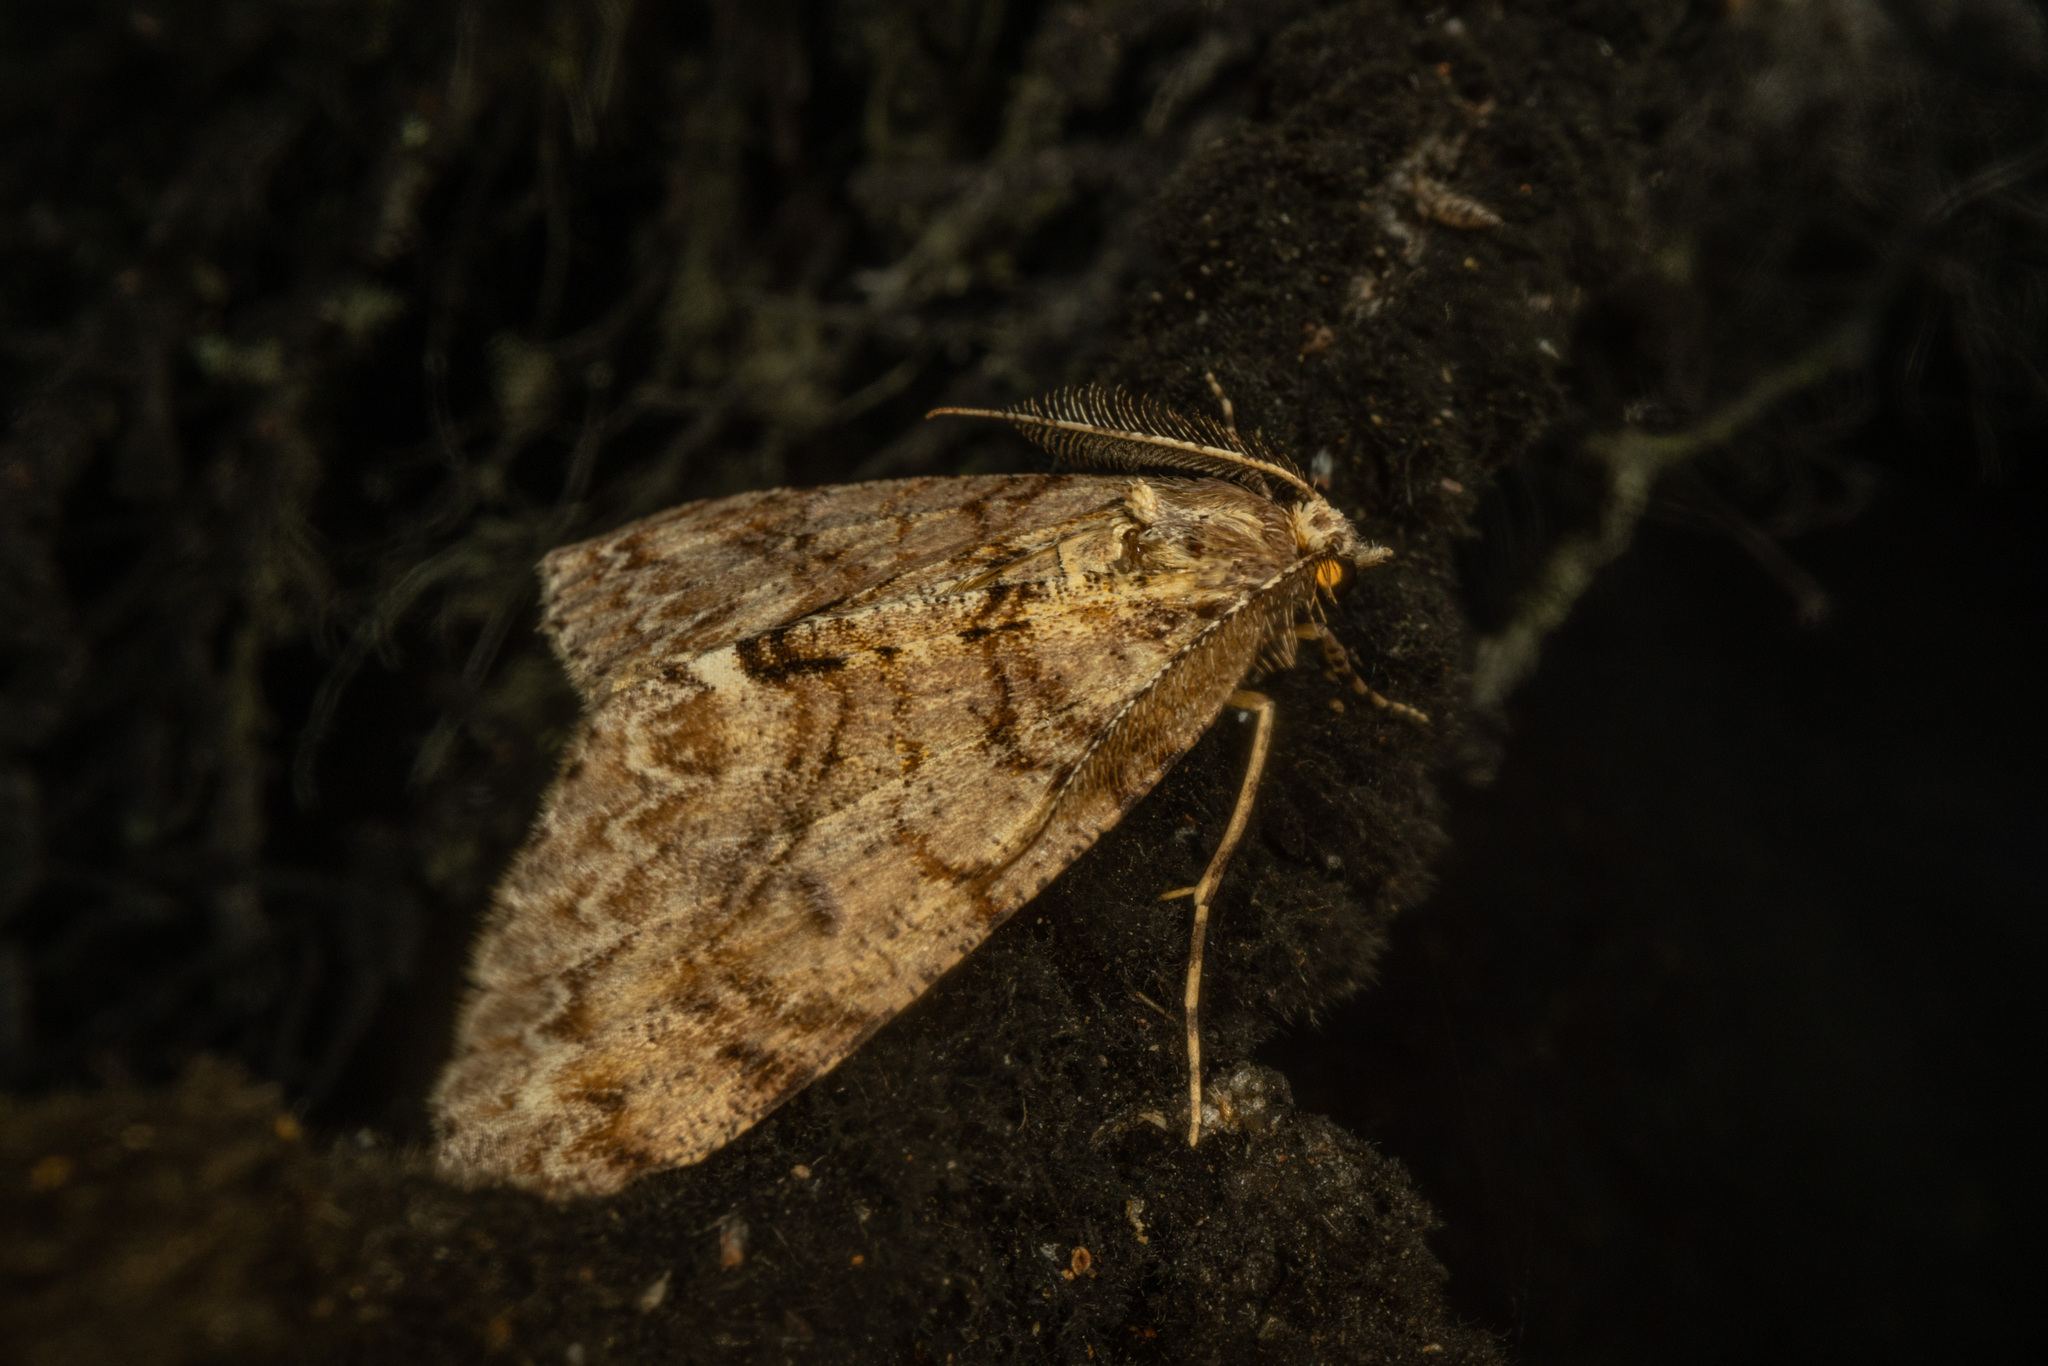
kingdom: Animalia
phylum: Arthropoda
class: Insecta
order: Lepidoptera
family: Geometridae
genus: Pseudocoremia
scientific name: Pseudocoremia suavis
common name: Common forest looper
